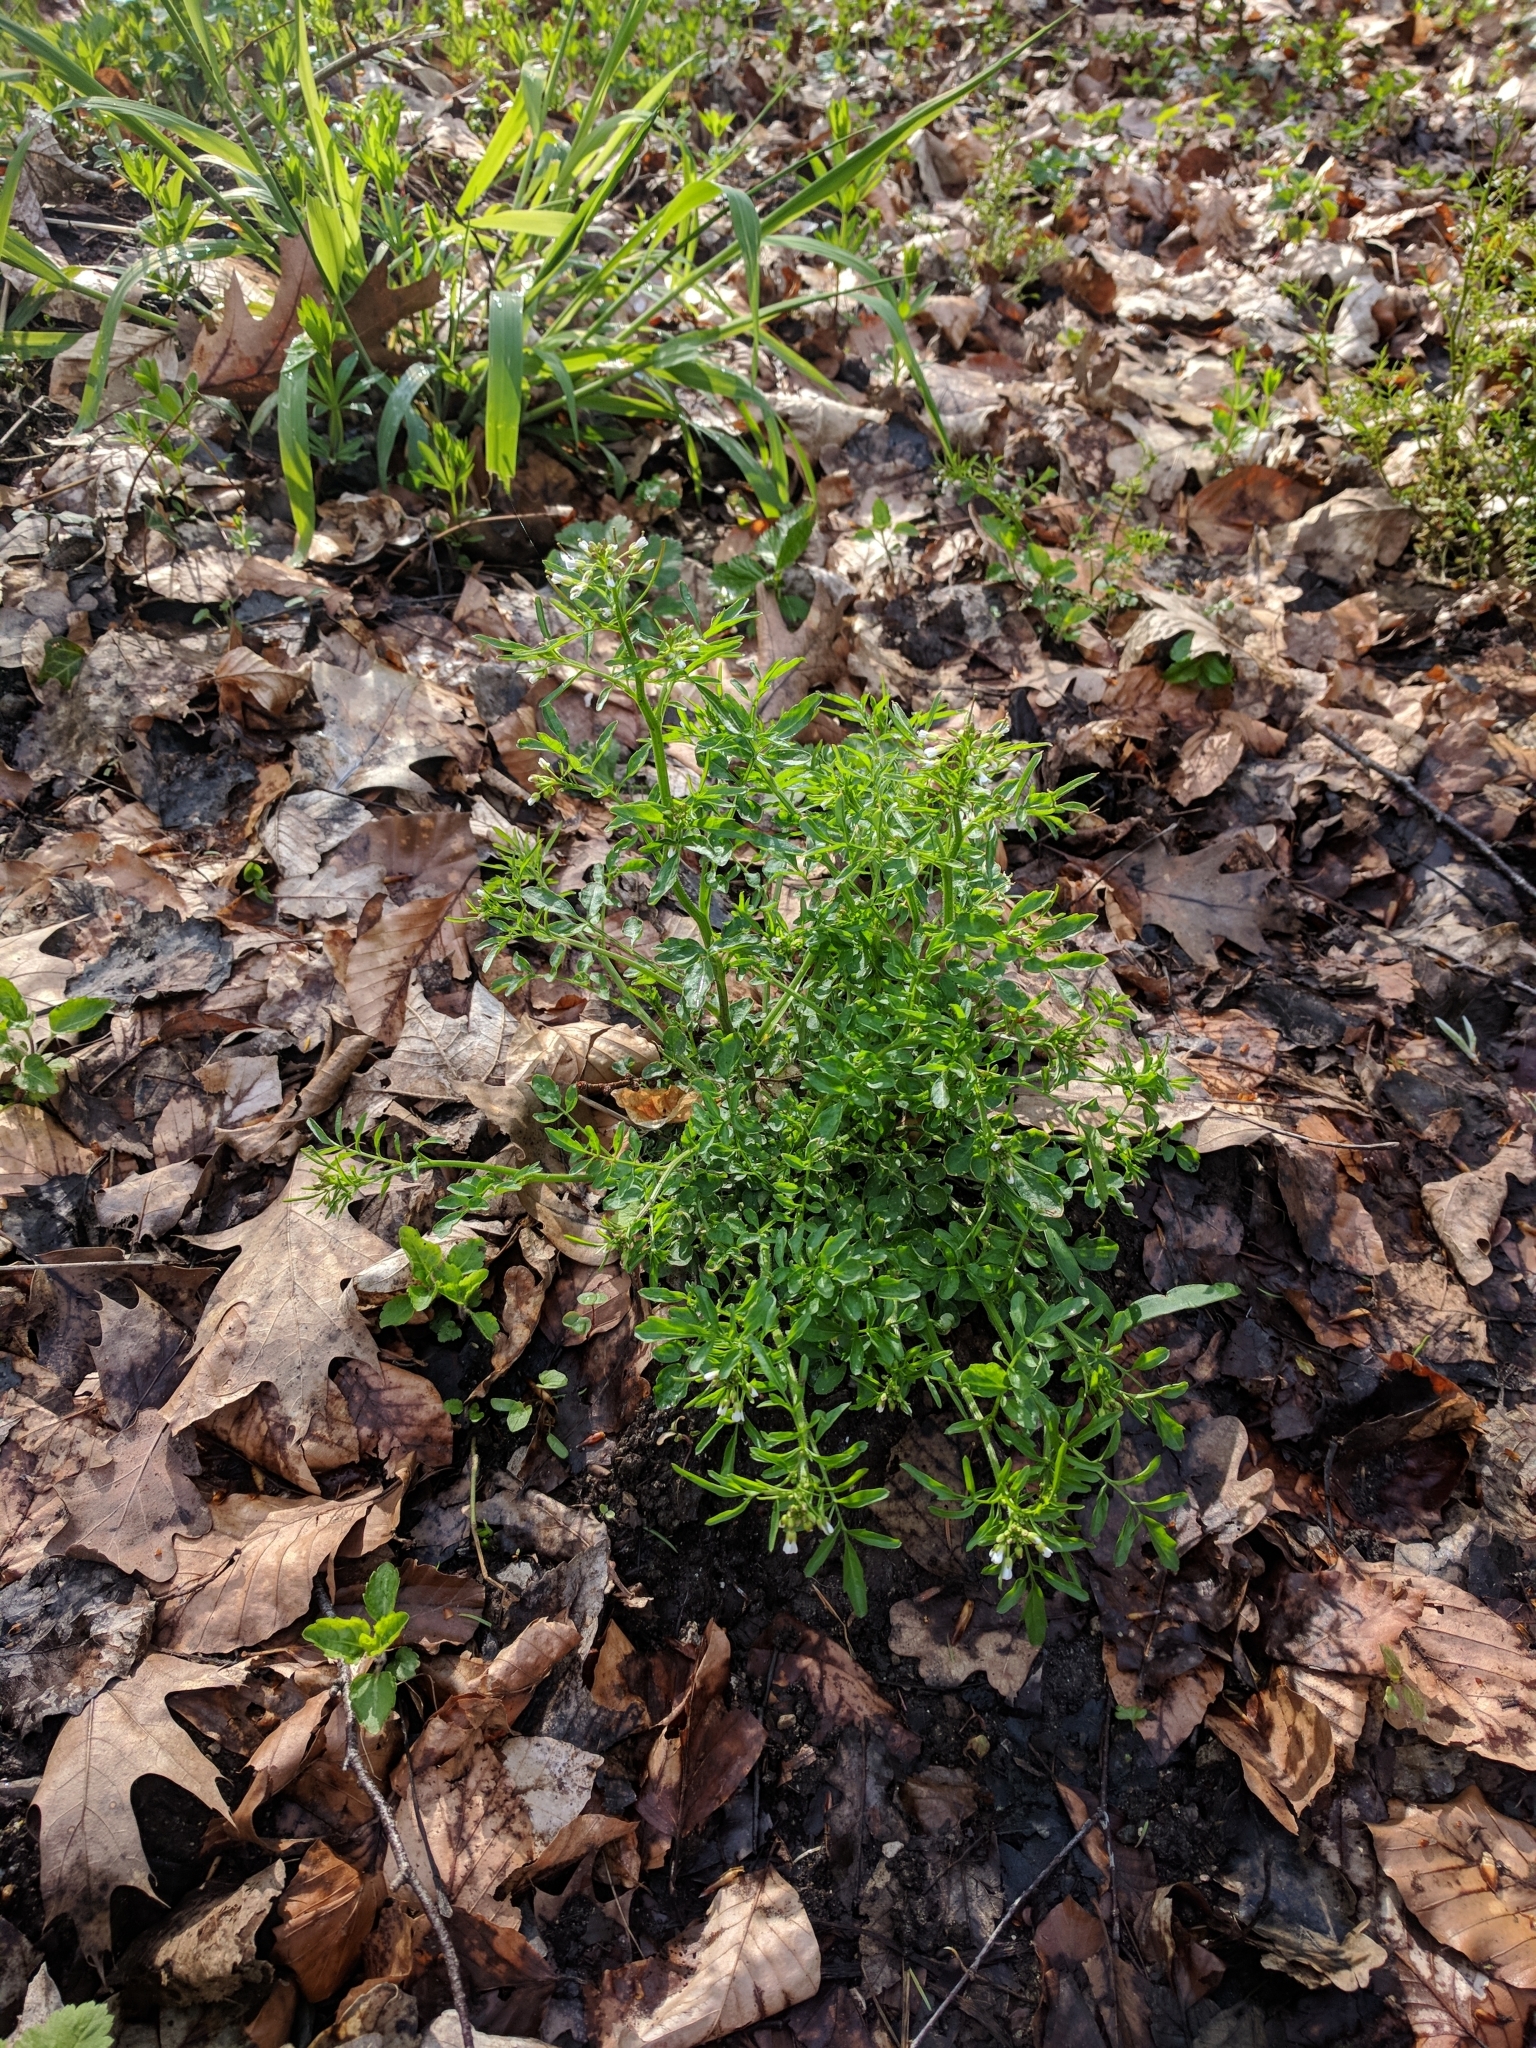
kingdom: Plantae
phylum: Tracheophyta
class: Magnoliopsida
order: Brassicales
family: Brassicaceae
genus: Cardamine
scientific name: Cardamine flexuosa
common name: Woodland bittercress
